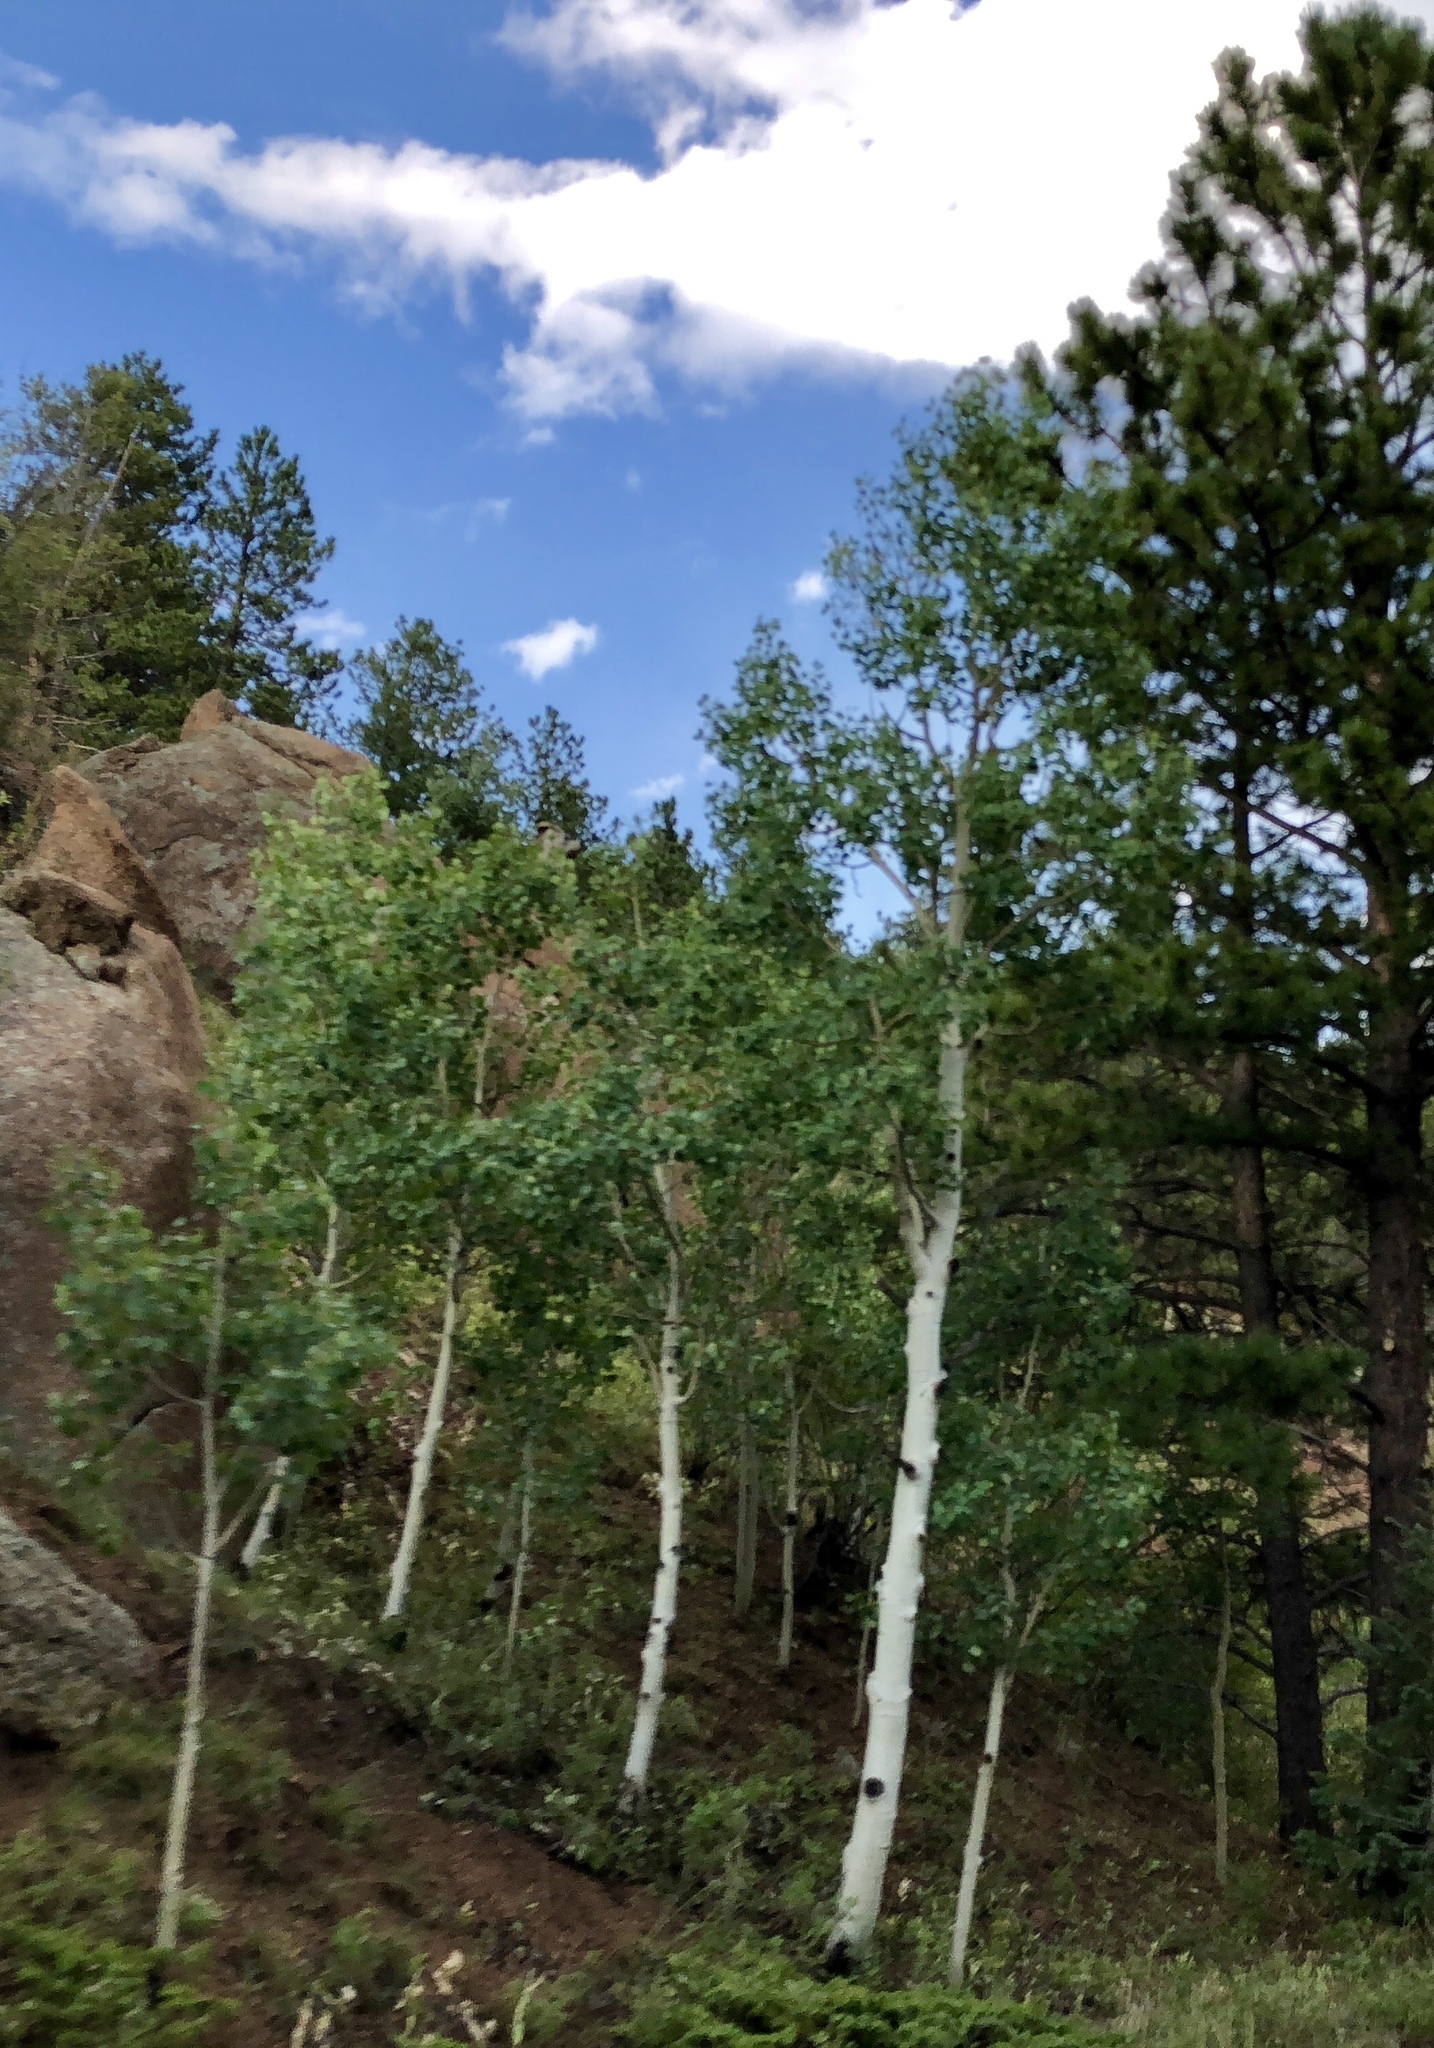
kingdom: Plantae
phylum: Tracheophyta
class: Magnoliopsida
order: Malpighiales
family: Salicaceae
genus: Populus
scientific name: Populus tremuloides
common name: Quaking aspen
